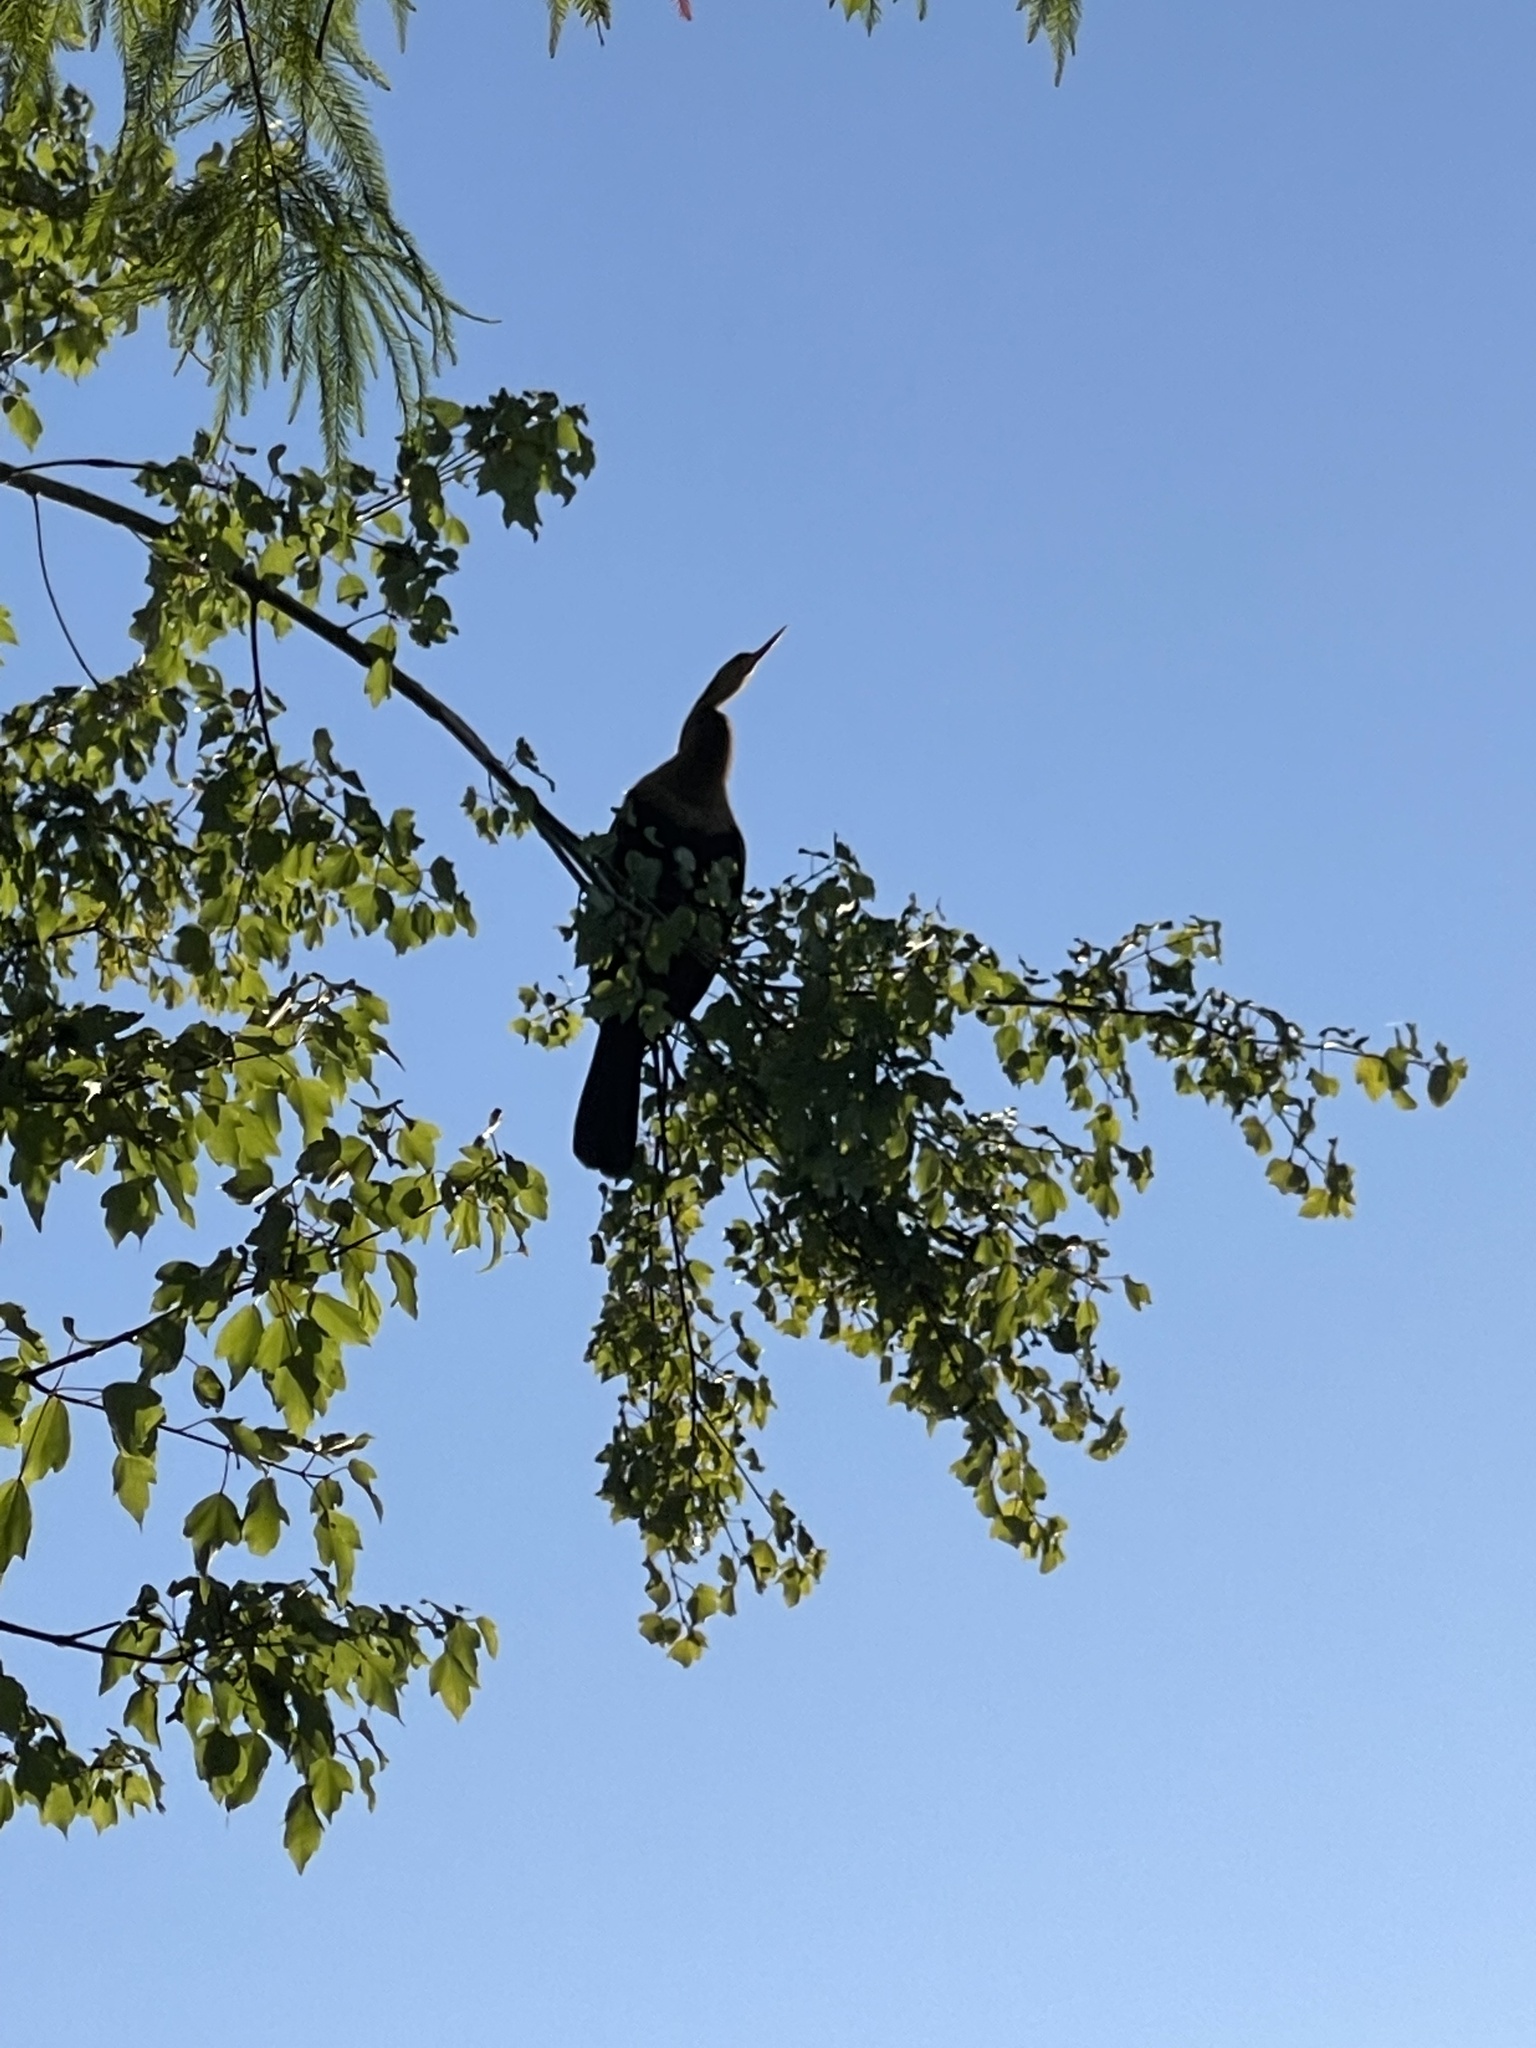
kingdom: Animalia
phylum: Chordata
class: Aves
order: Suliformes
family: Anhingidae
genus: Anhinga
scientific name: Anhinga anhinga
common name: Anhinga
